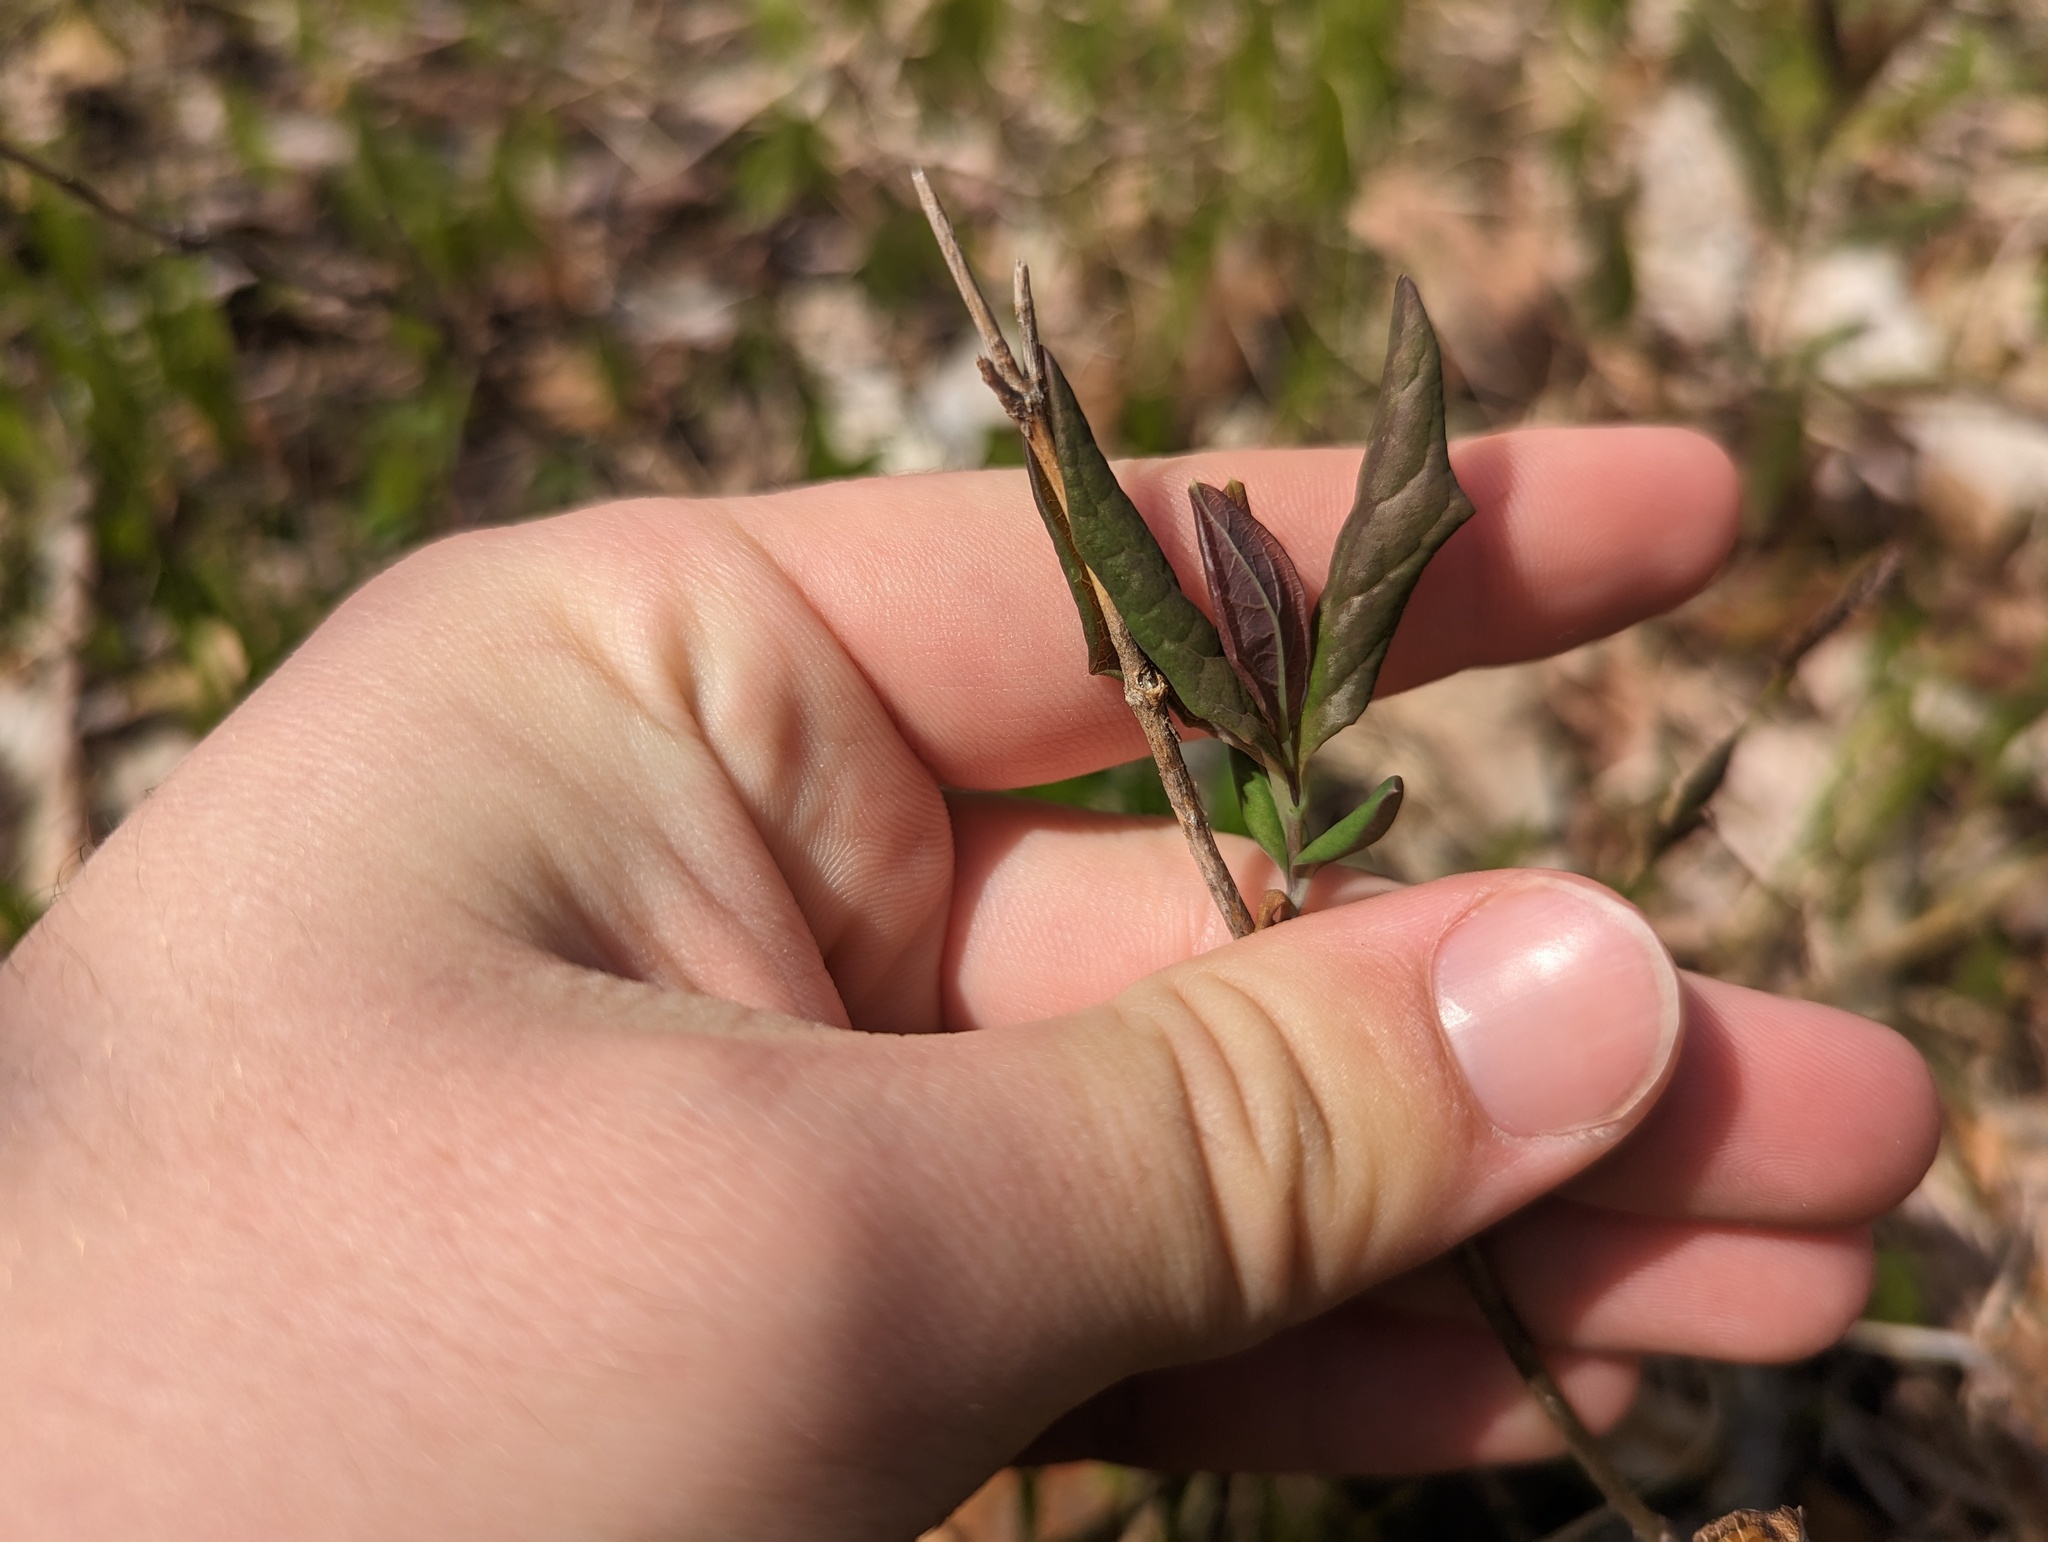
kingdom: Plantae
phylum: Tracheophyta
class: Magnoliopsida
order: Dipsacales
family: Caprifoliaceae
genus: Lonicera
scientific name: Lonicera dioica
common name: Limber honeysuckle
